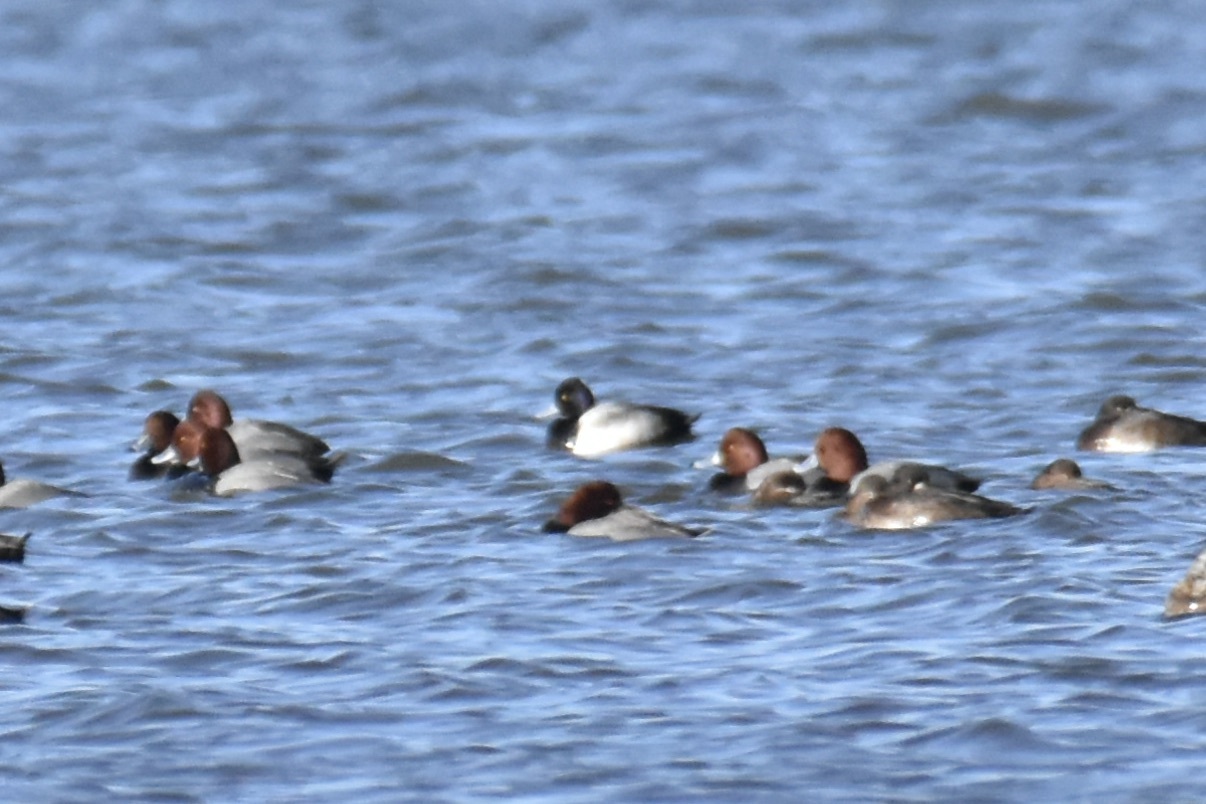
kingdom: Animalia
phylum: Chordata
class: Aves
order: Anseriformes
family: Anatidae
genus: Aythya
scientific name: Aythya affinis
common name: Lesser scaup
